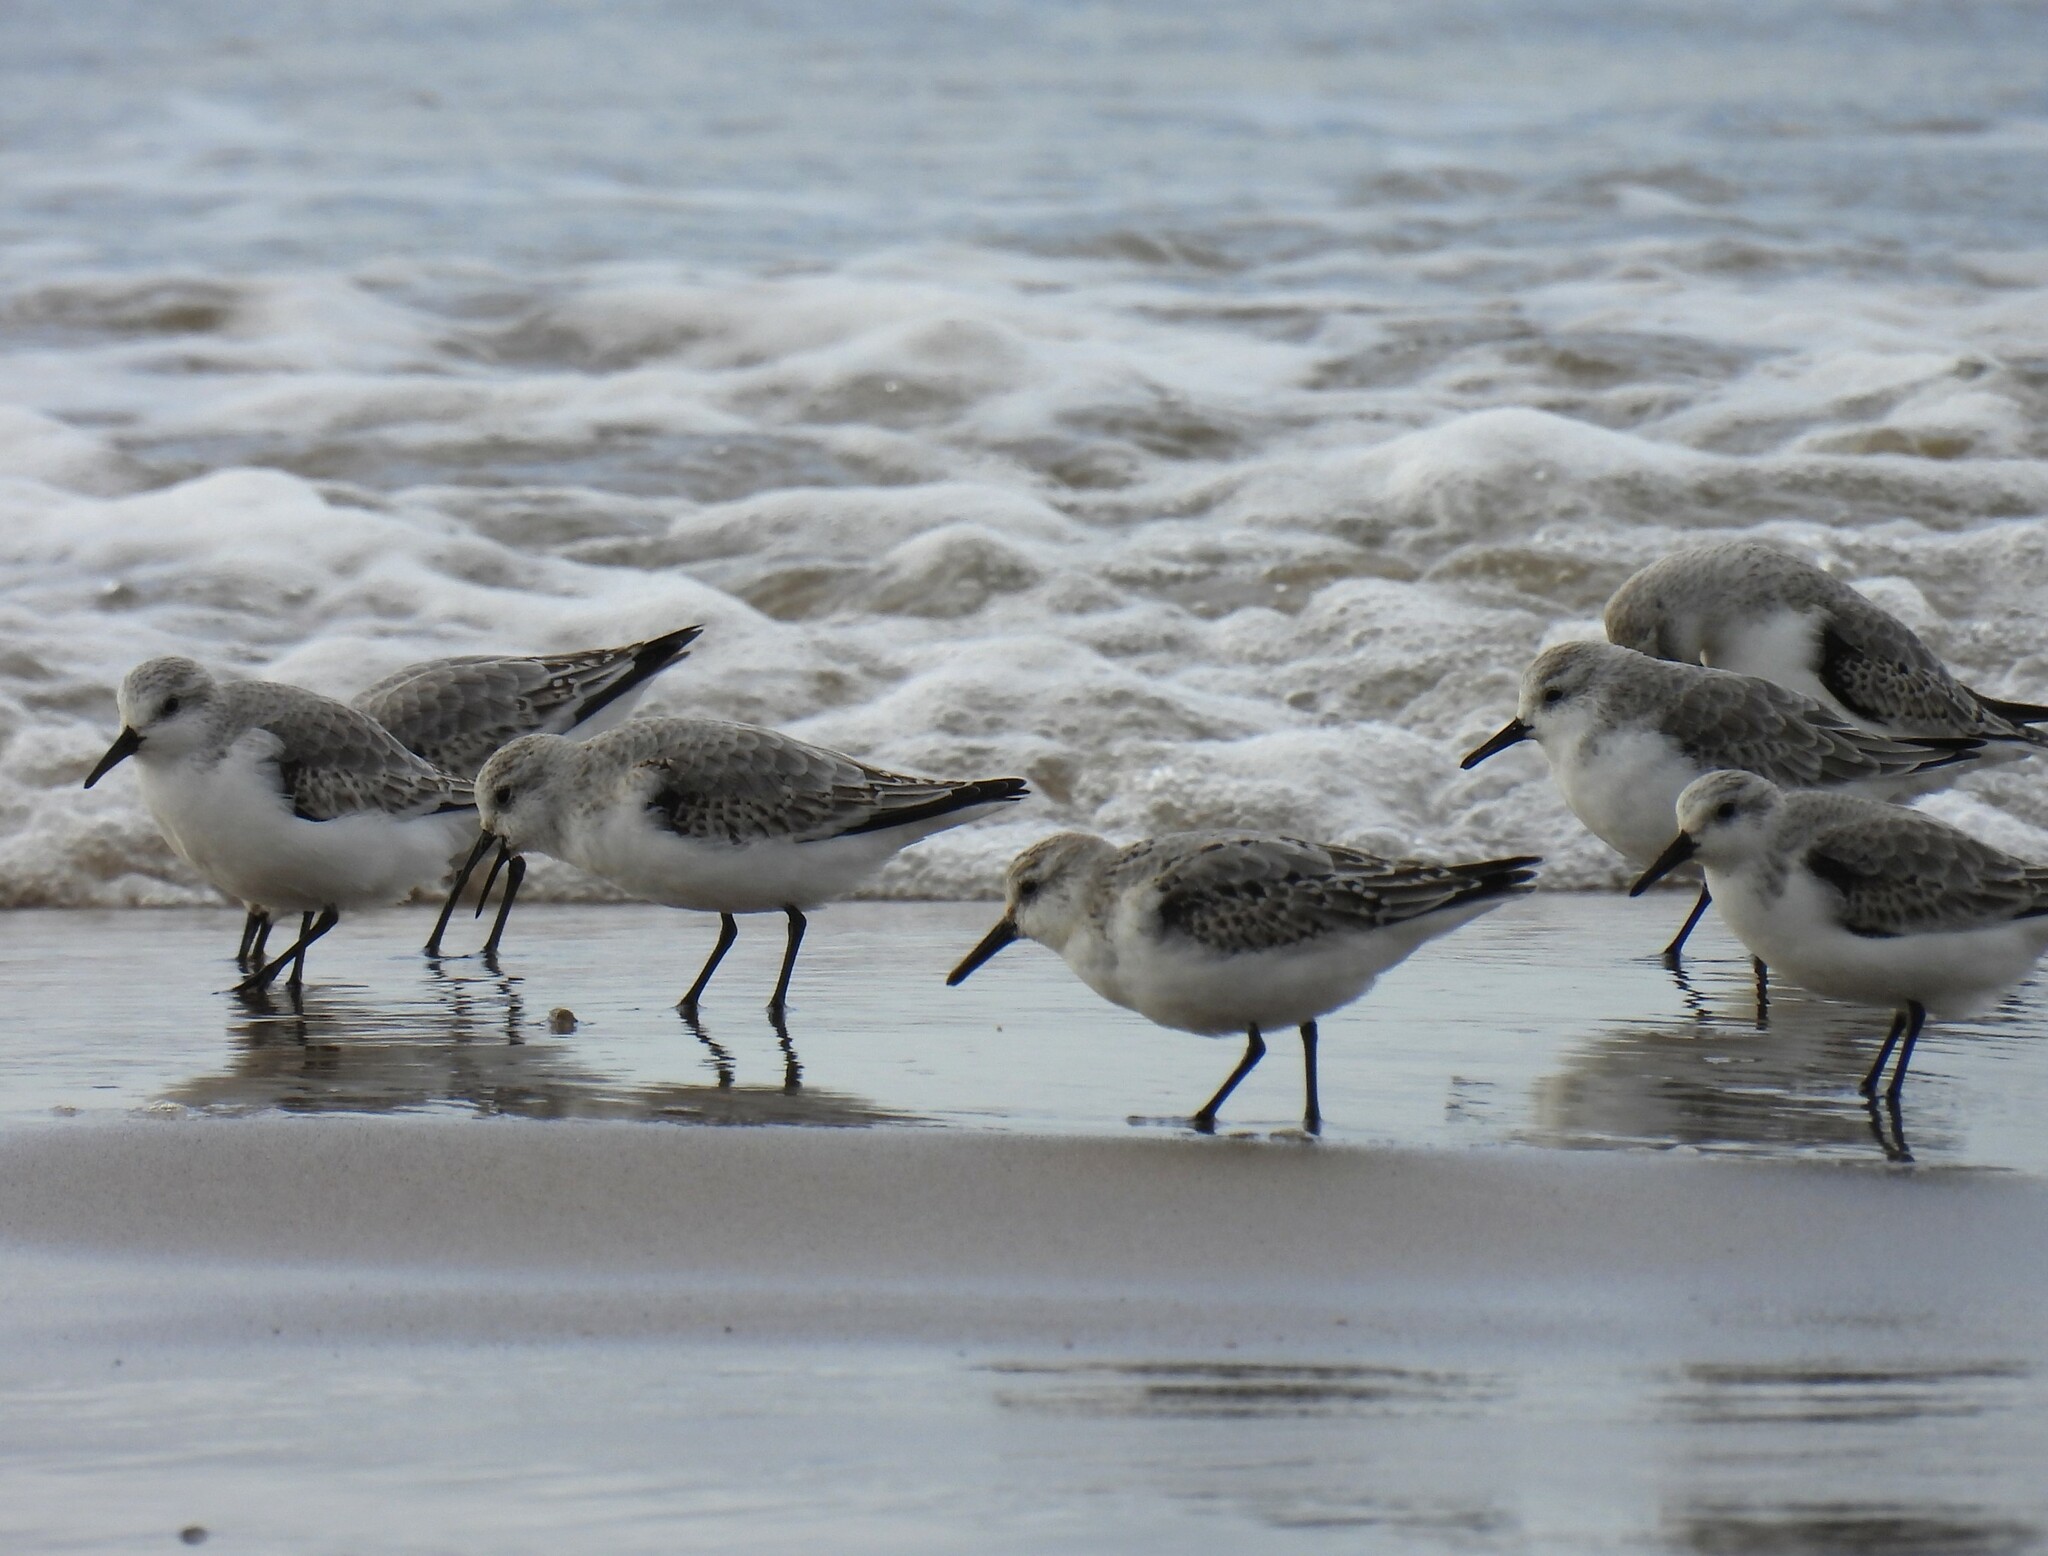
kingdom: Animalia
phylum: Chordata
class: Aves
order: Charadriiformes
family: Scolopacidae
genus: Calidris
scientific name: Calidris alba
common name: Sanderling
